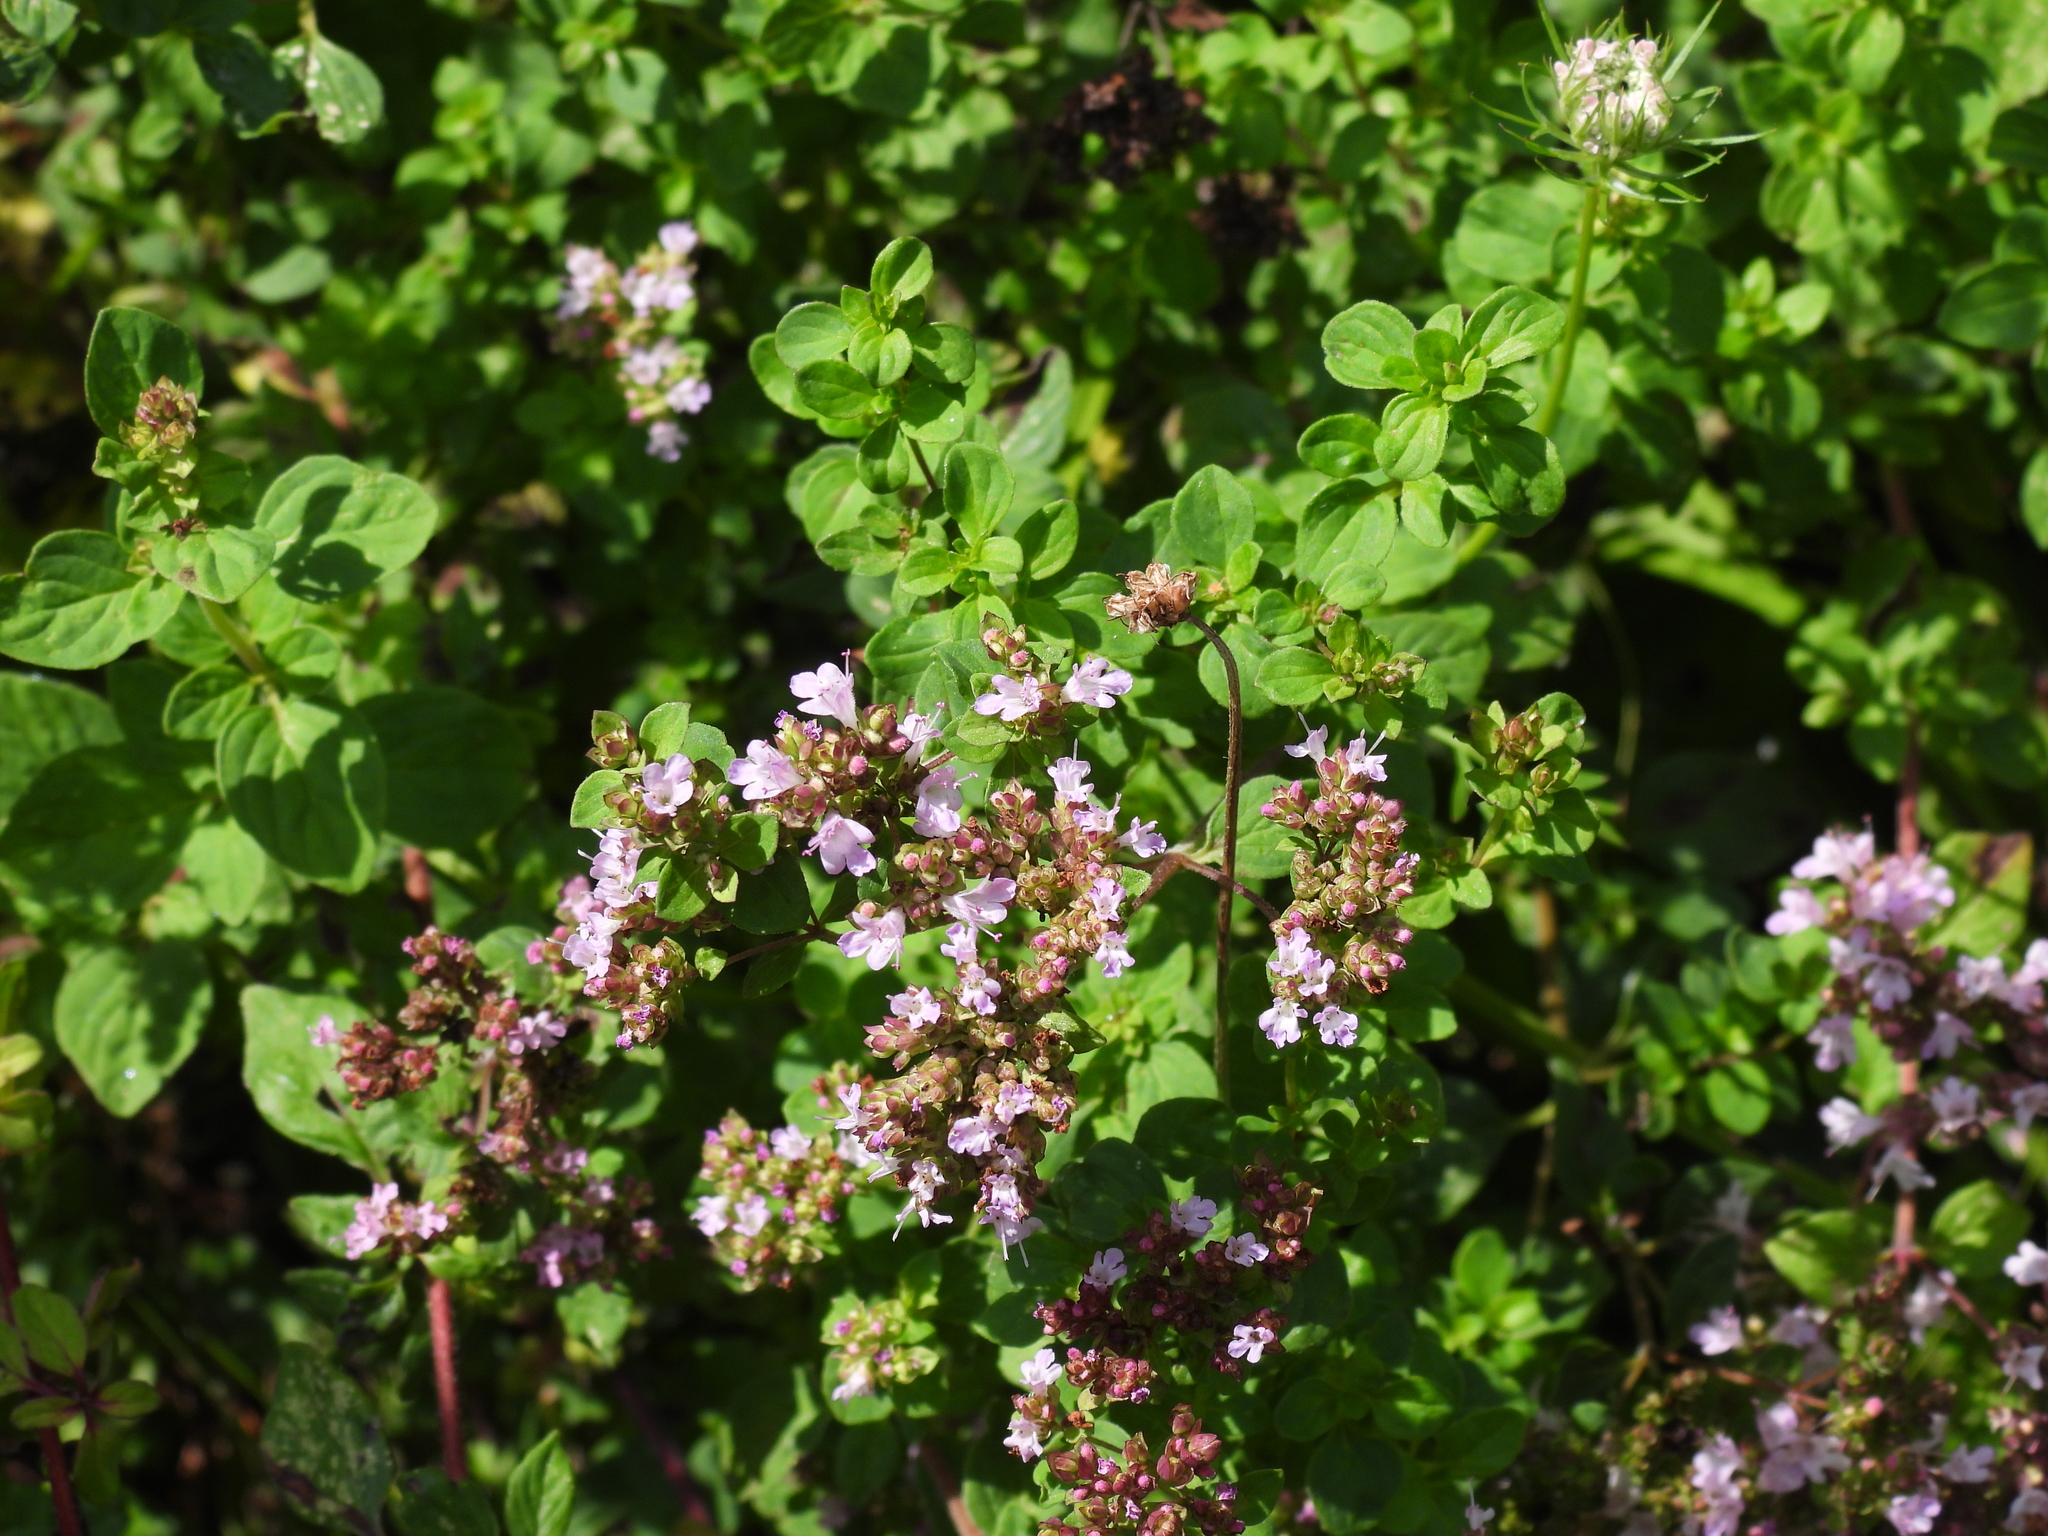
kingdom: Plantae
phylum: Tracheophyta
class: Magnoliopsida
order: Lamiales
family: Lamiaceae
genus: Origanum
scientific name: Origanum vulgare
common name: Wild marjoram
